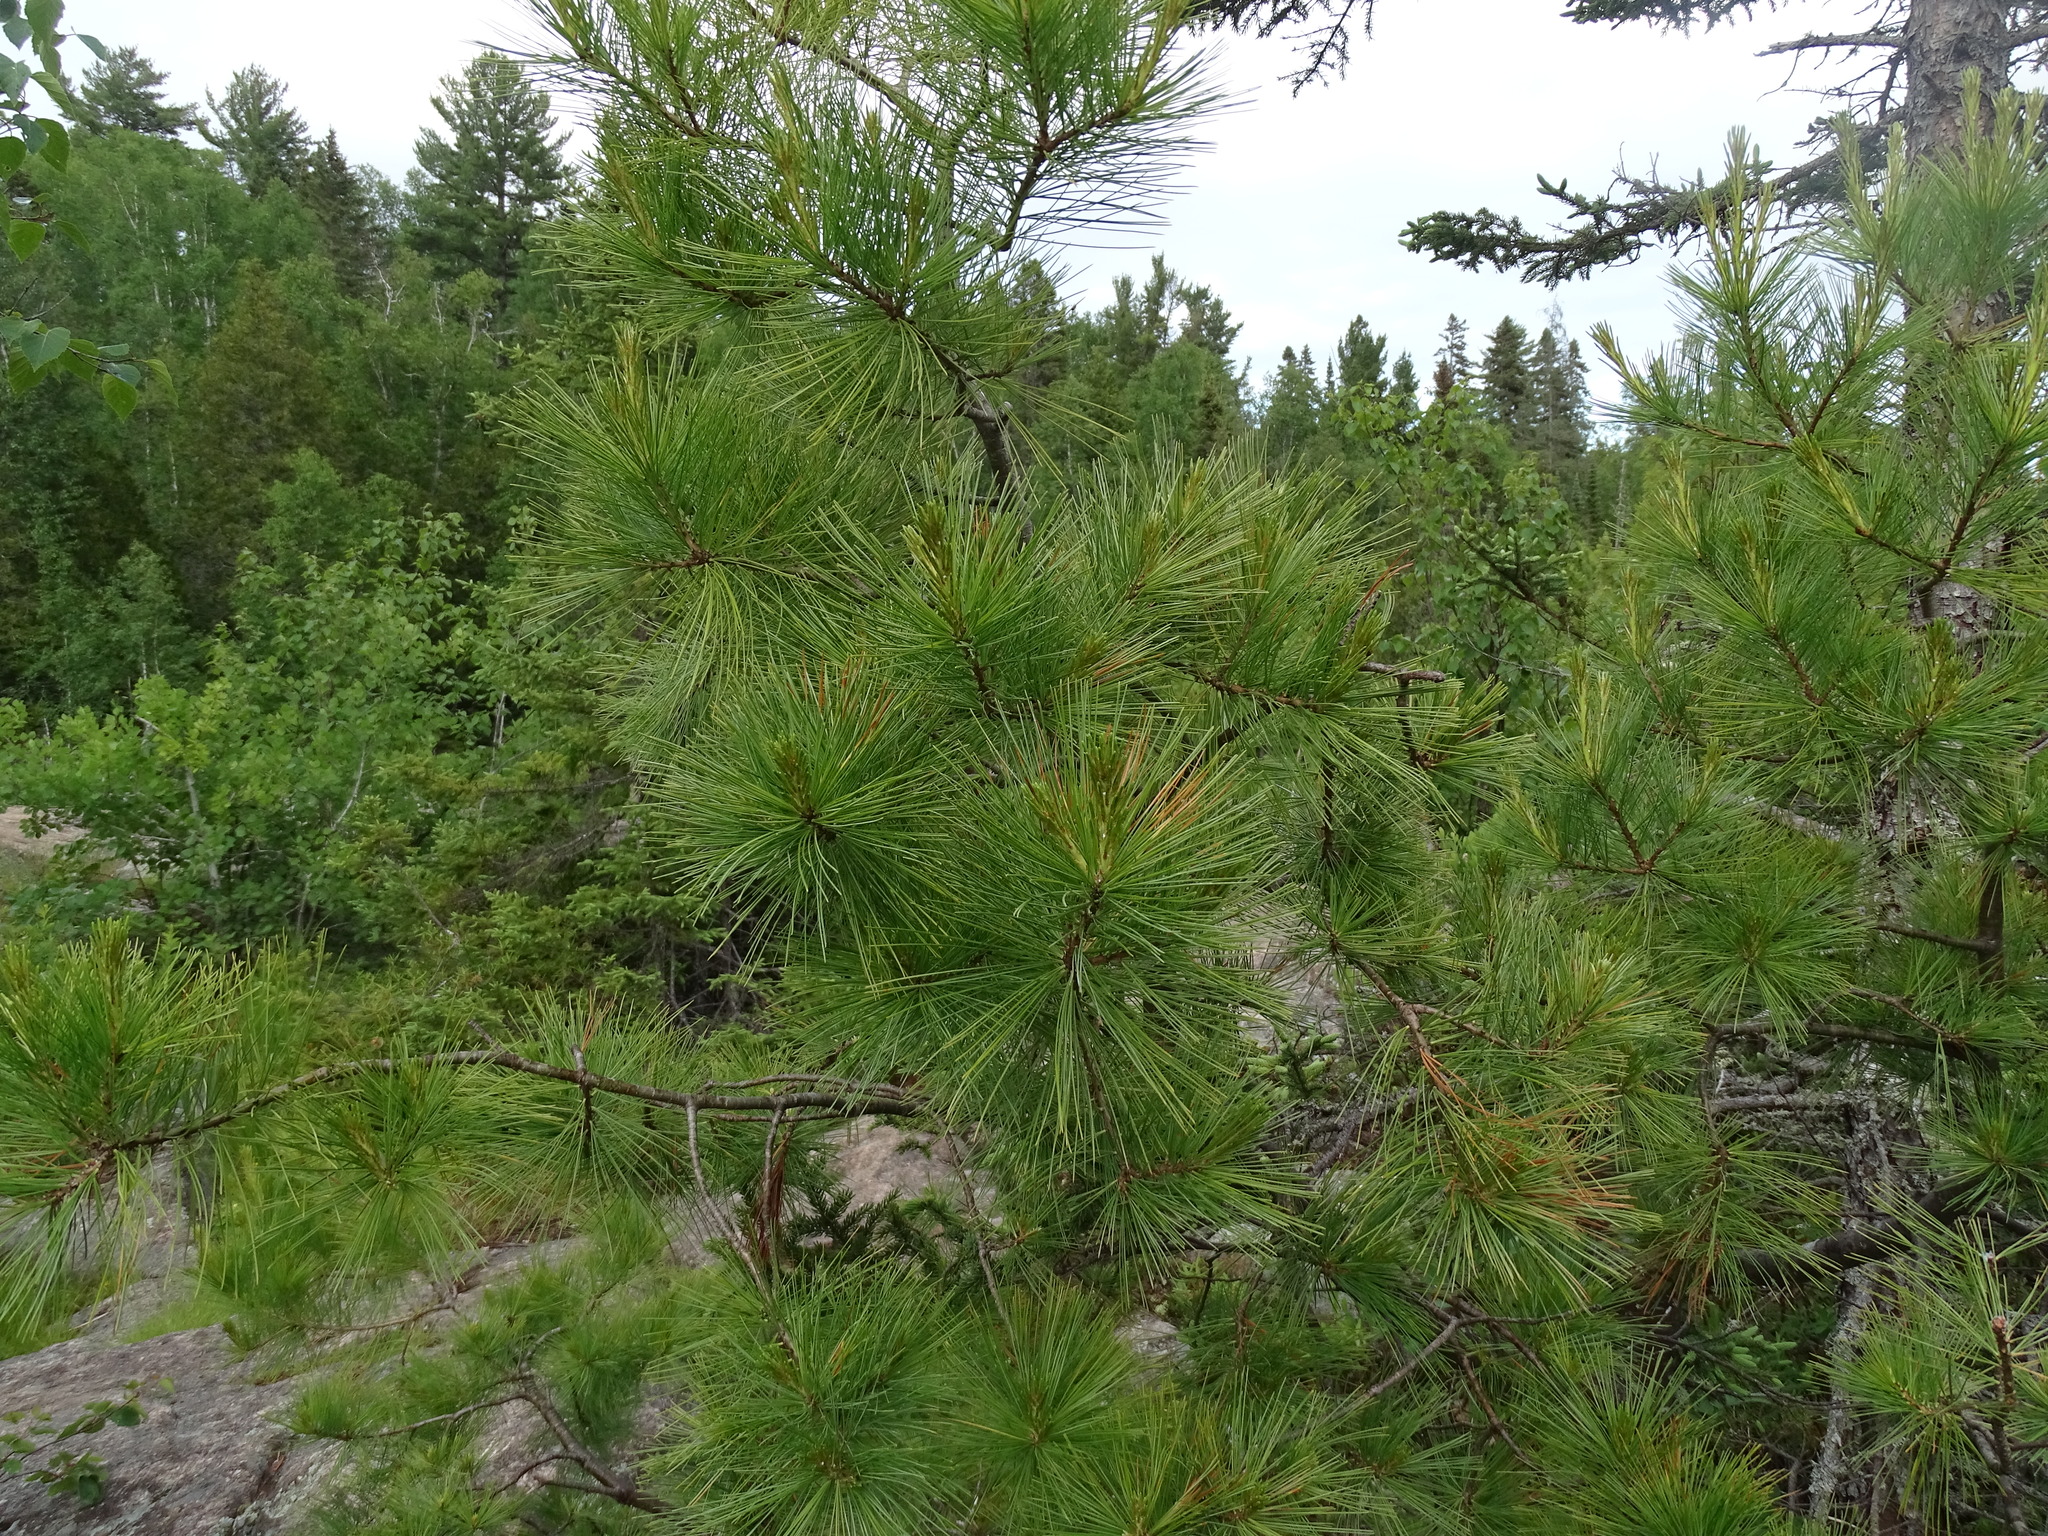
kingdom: Plantae
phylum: Tracheophyta
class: Pinopsida
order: Pinales
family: Pinaceae
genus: Pinus
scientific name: Pinus strobus
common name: Weymouth pine
